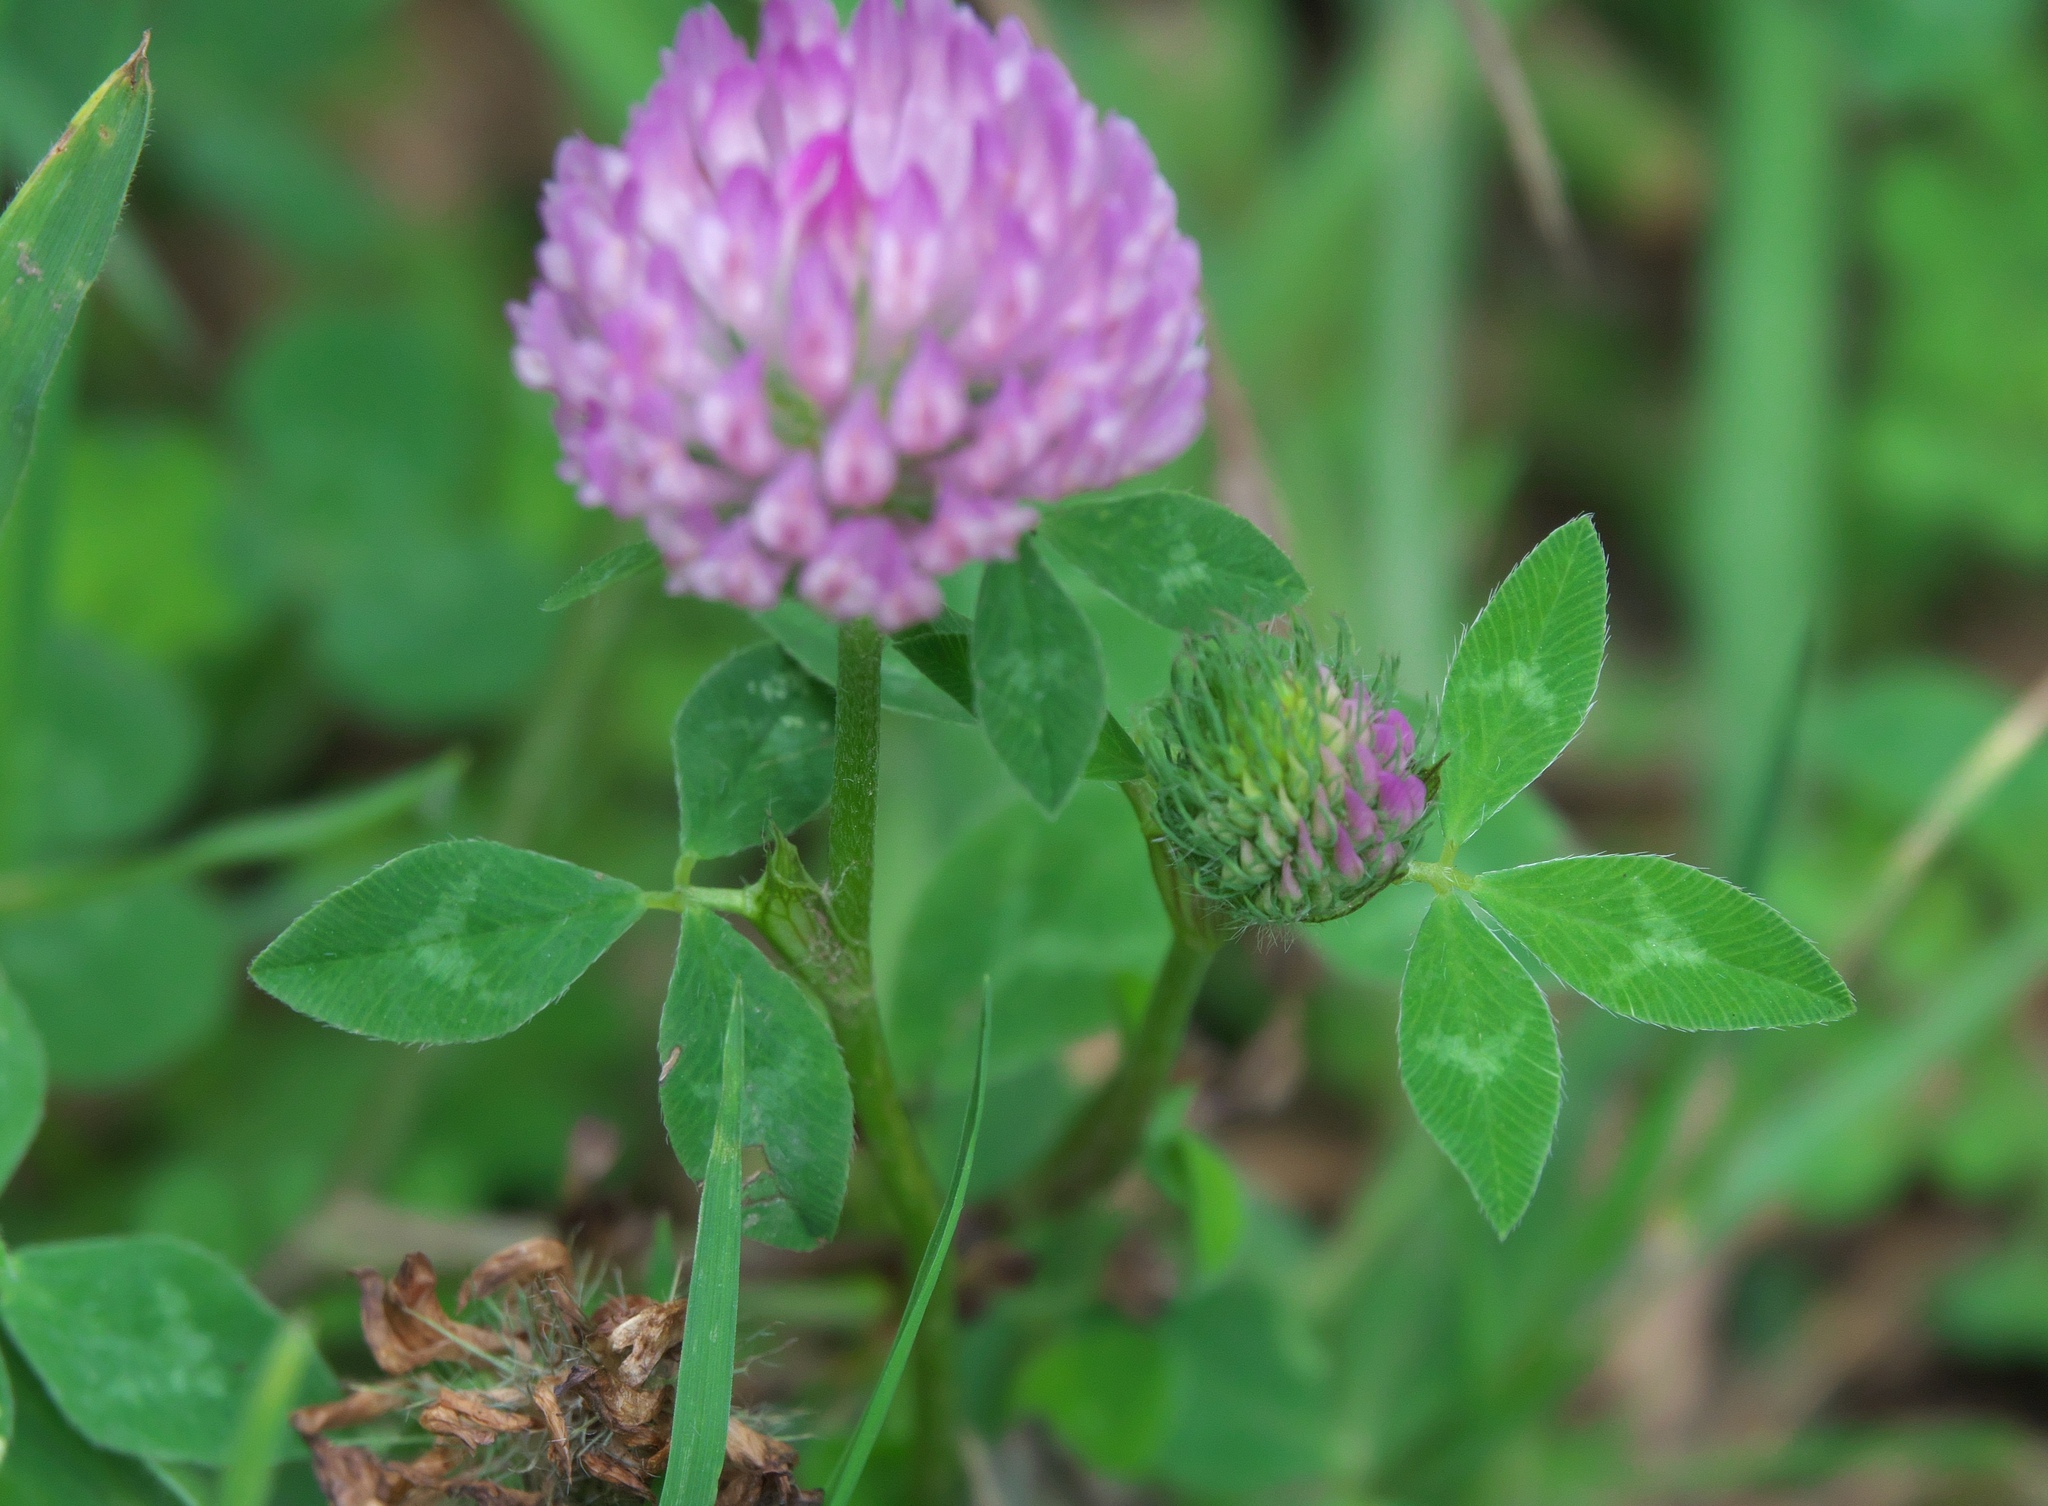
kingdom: Plantae
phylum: Tracheophyta
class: Magnoliopsida
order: Fabales
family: Fabaceae
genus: Trifolium
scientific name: Trifolium pratense
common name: Red clover
